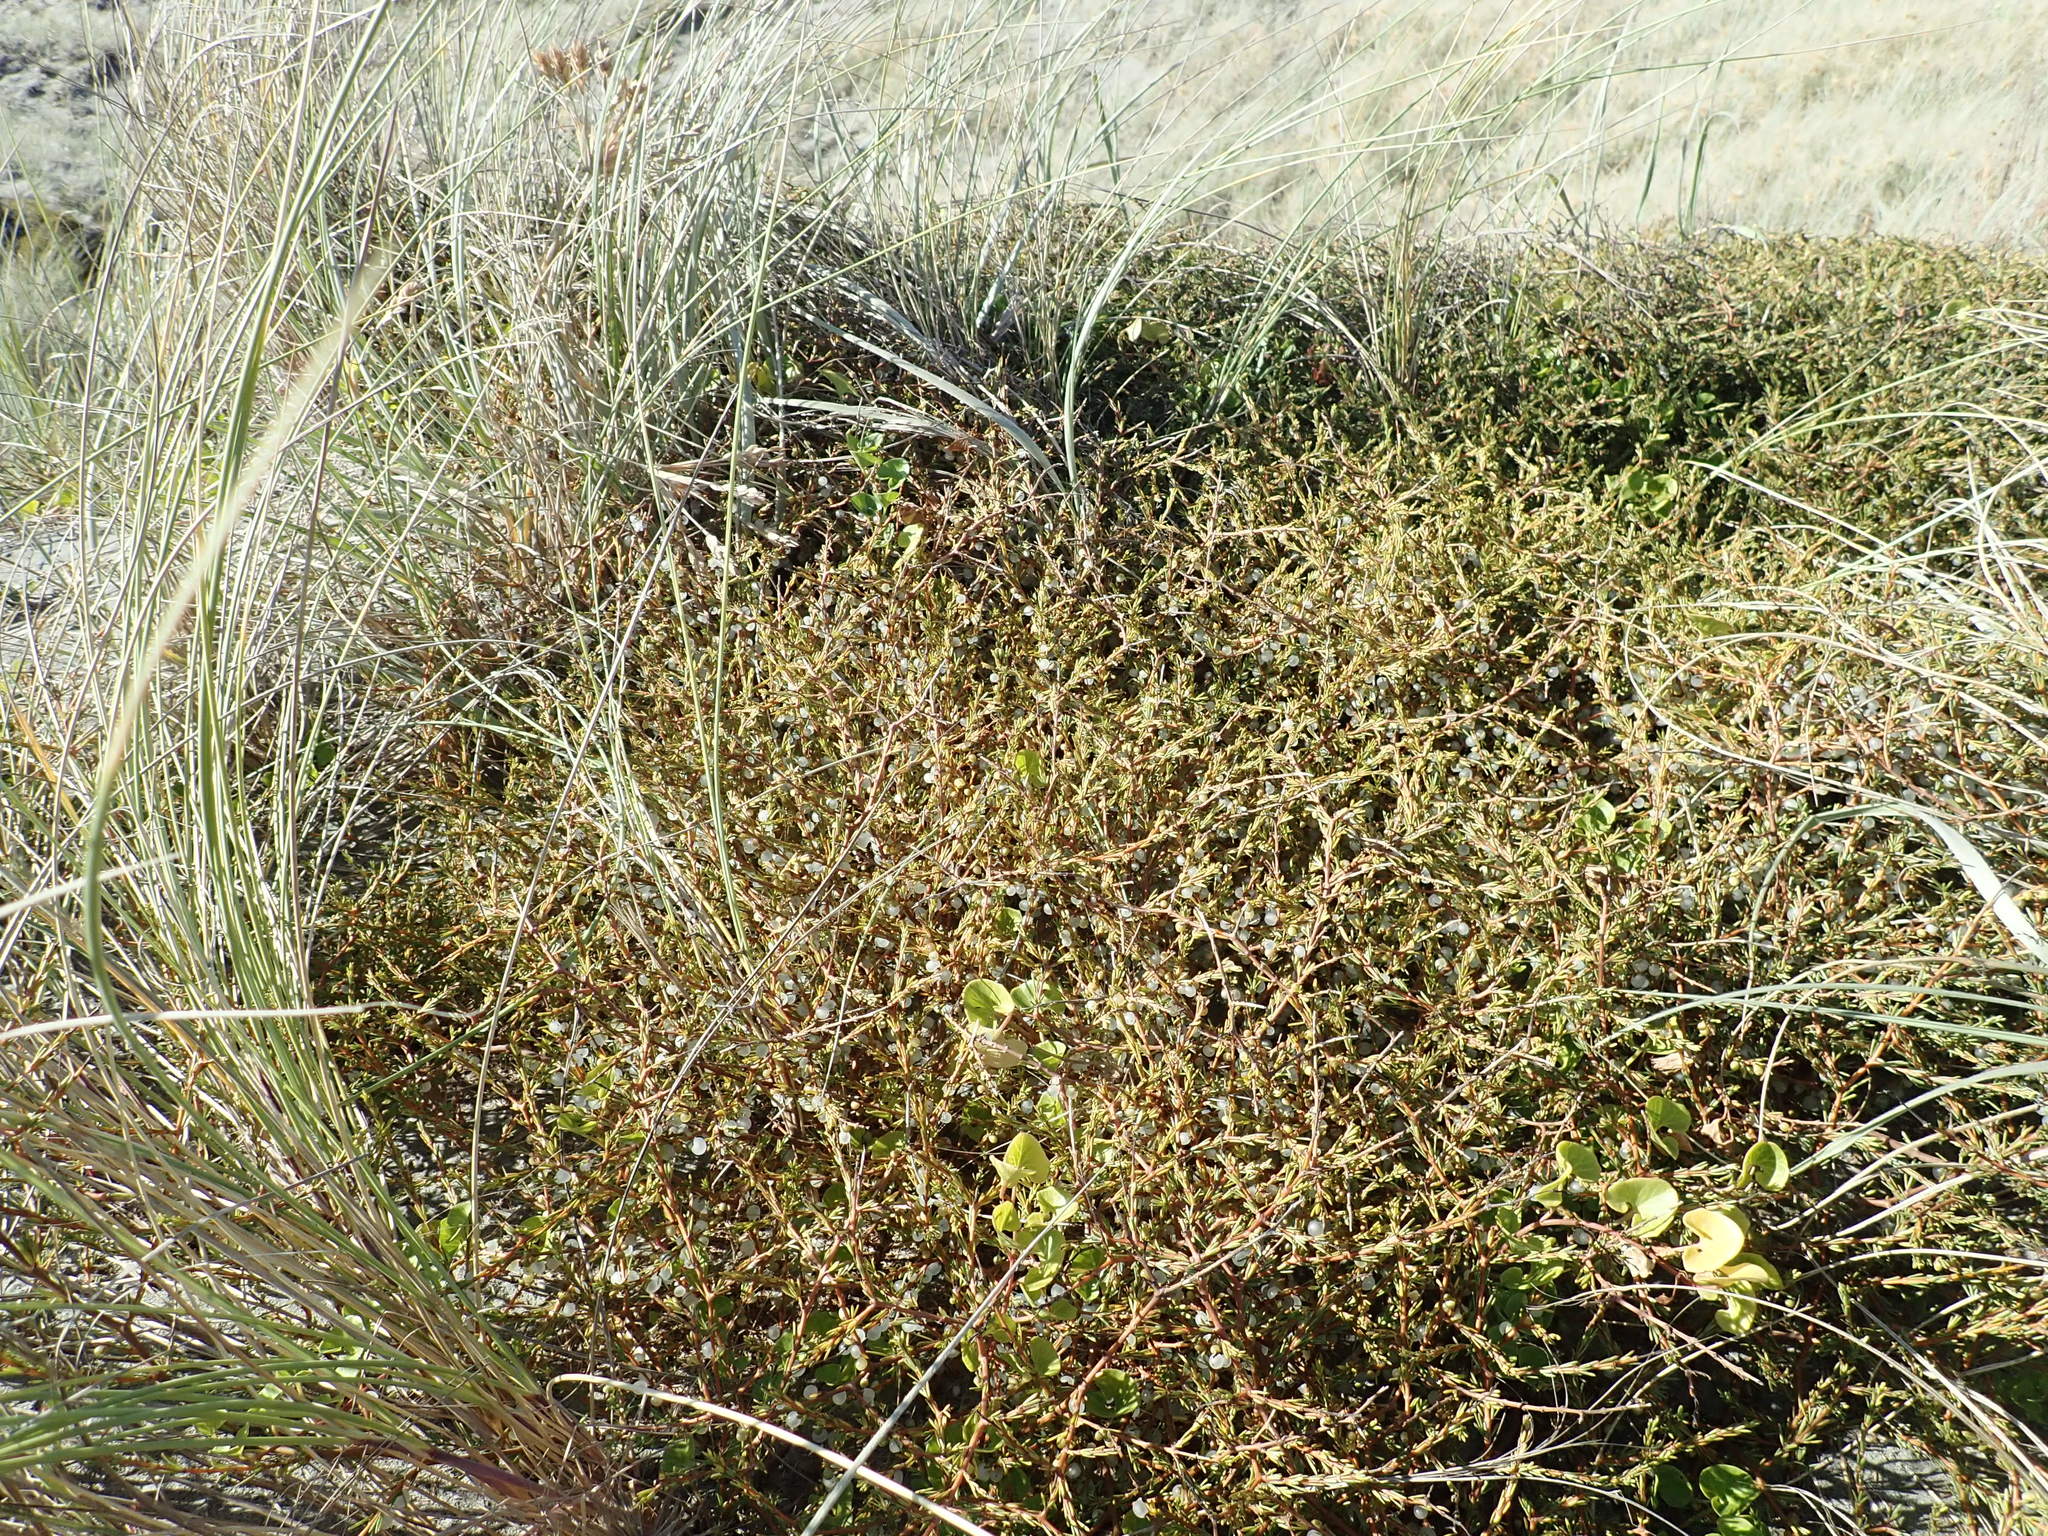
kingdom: Plantae
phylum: Tracheophyta
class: Magnoliopsida
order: Gentianales
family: Rubiaceae
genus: Coprosma
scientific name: Coprosma acerosa
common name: Sand coprosma
